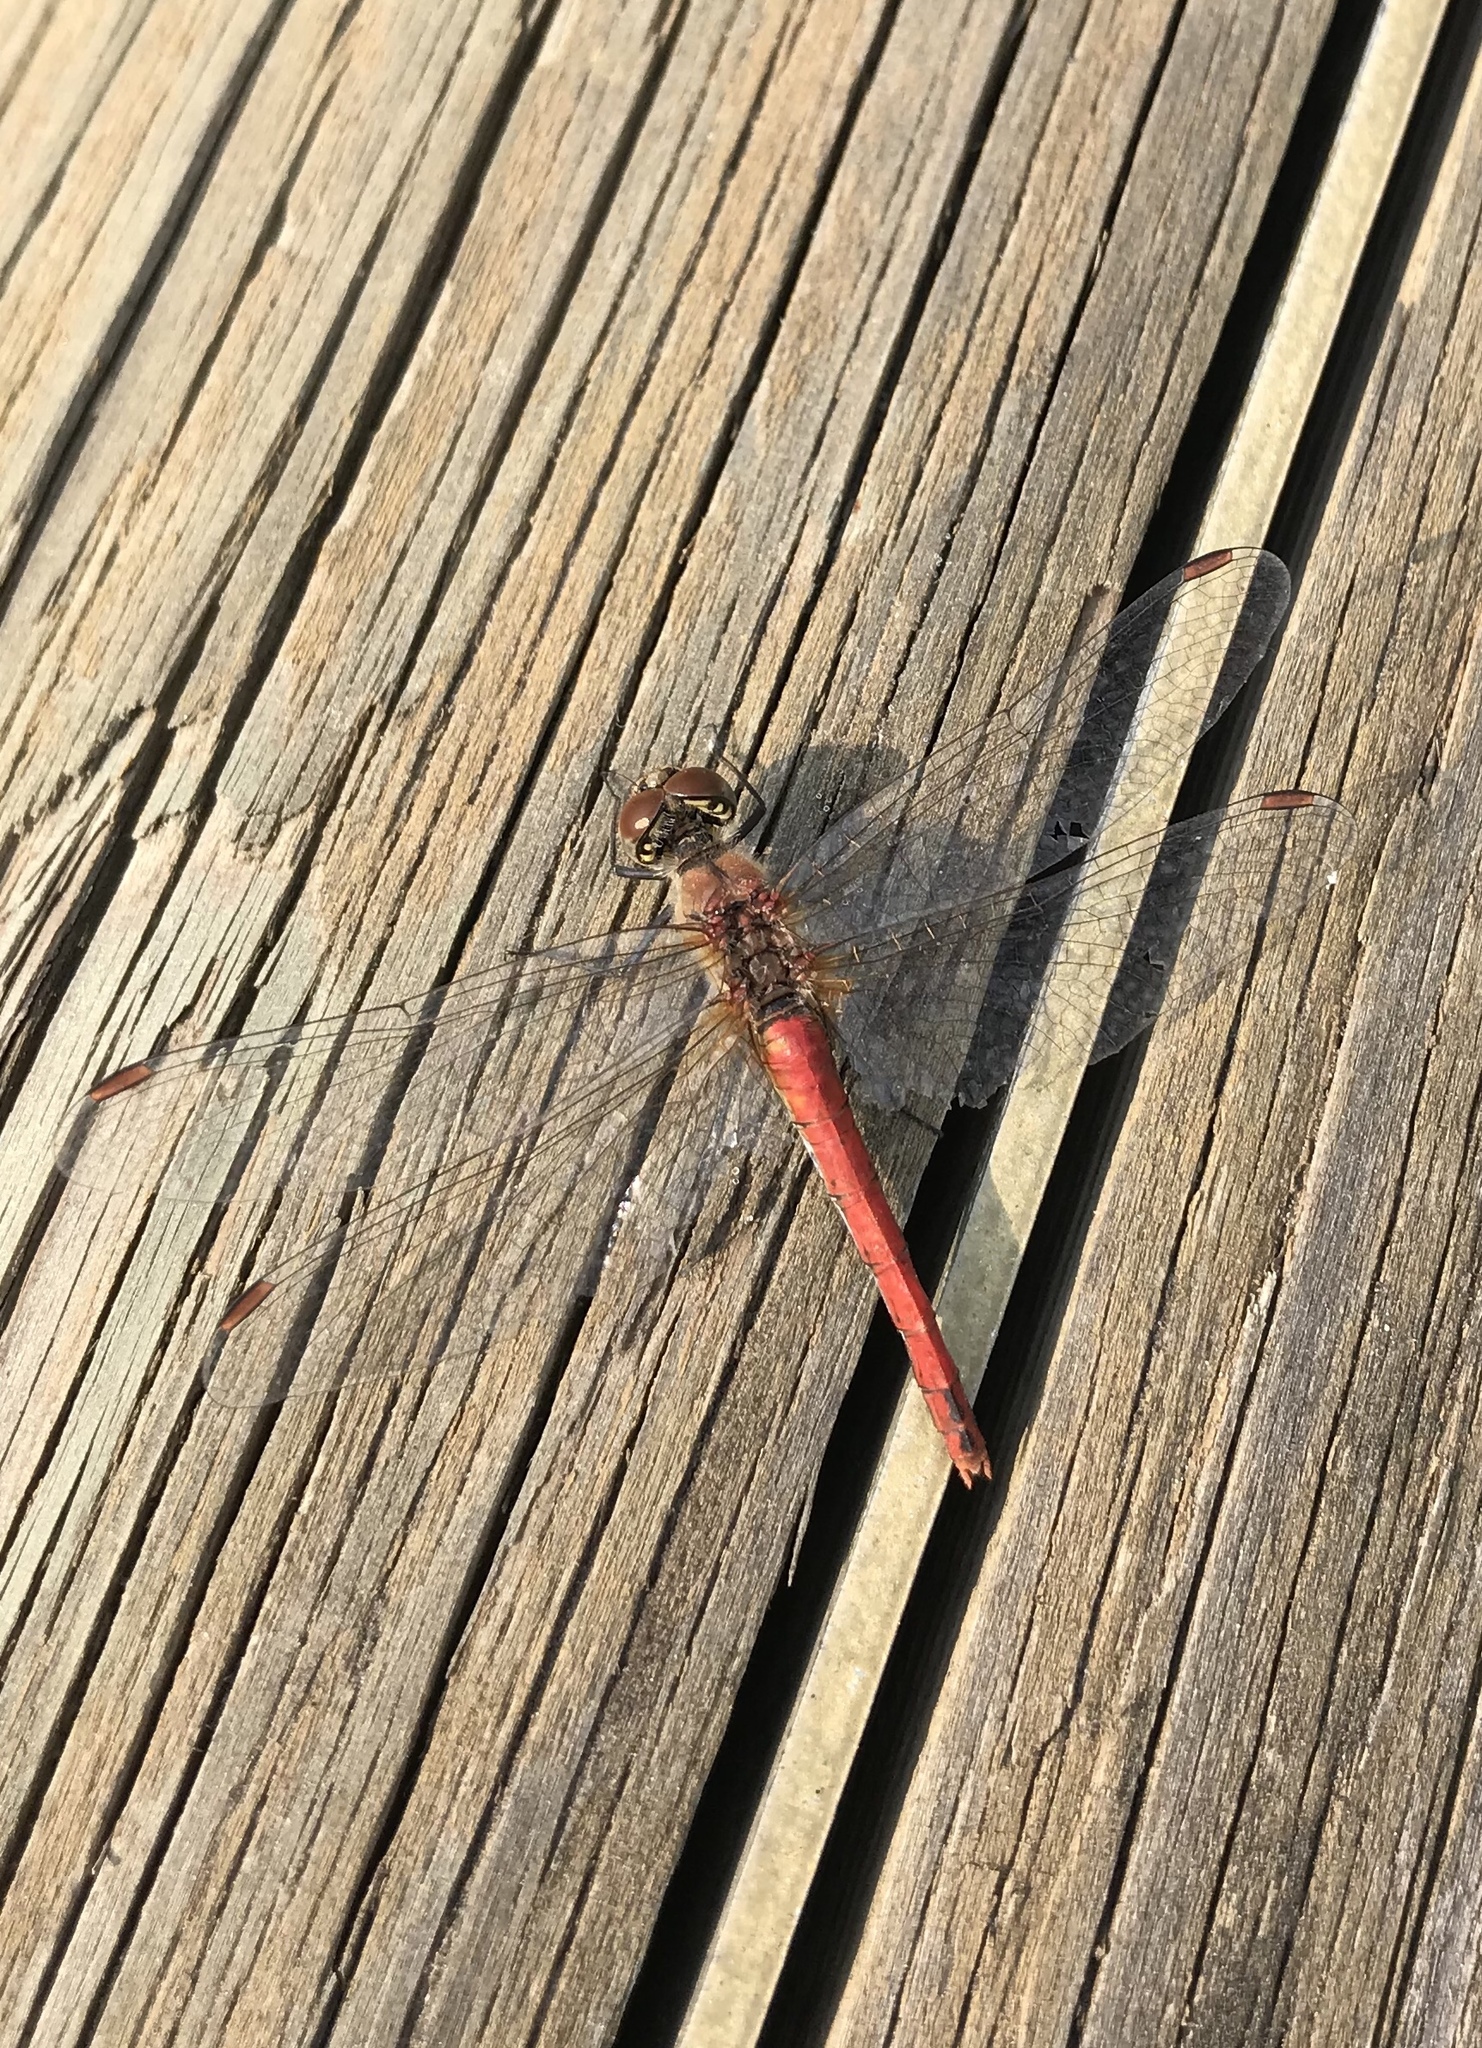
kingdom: Animalia
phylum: Arthropoda
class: Insecta
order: Odonata
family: Libellulidae
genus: Sympetrum
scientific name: Sympetrum sanguineum
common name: Ruddy darter
